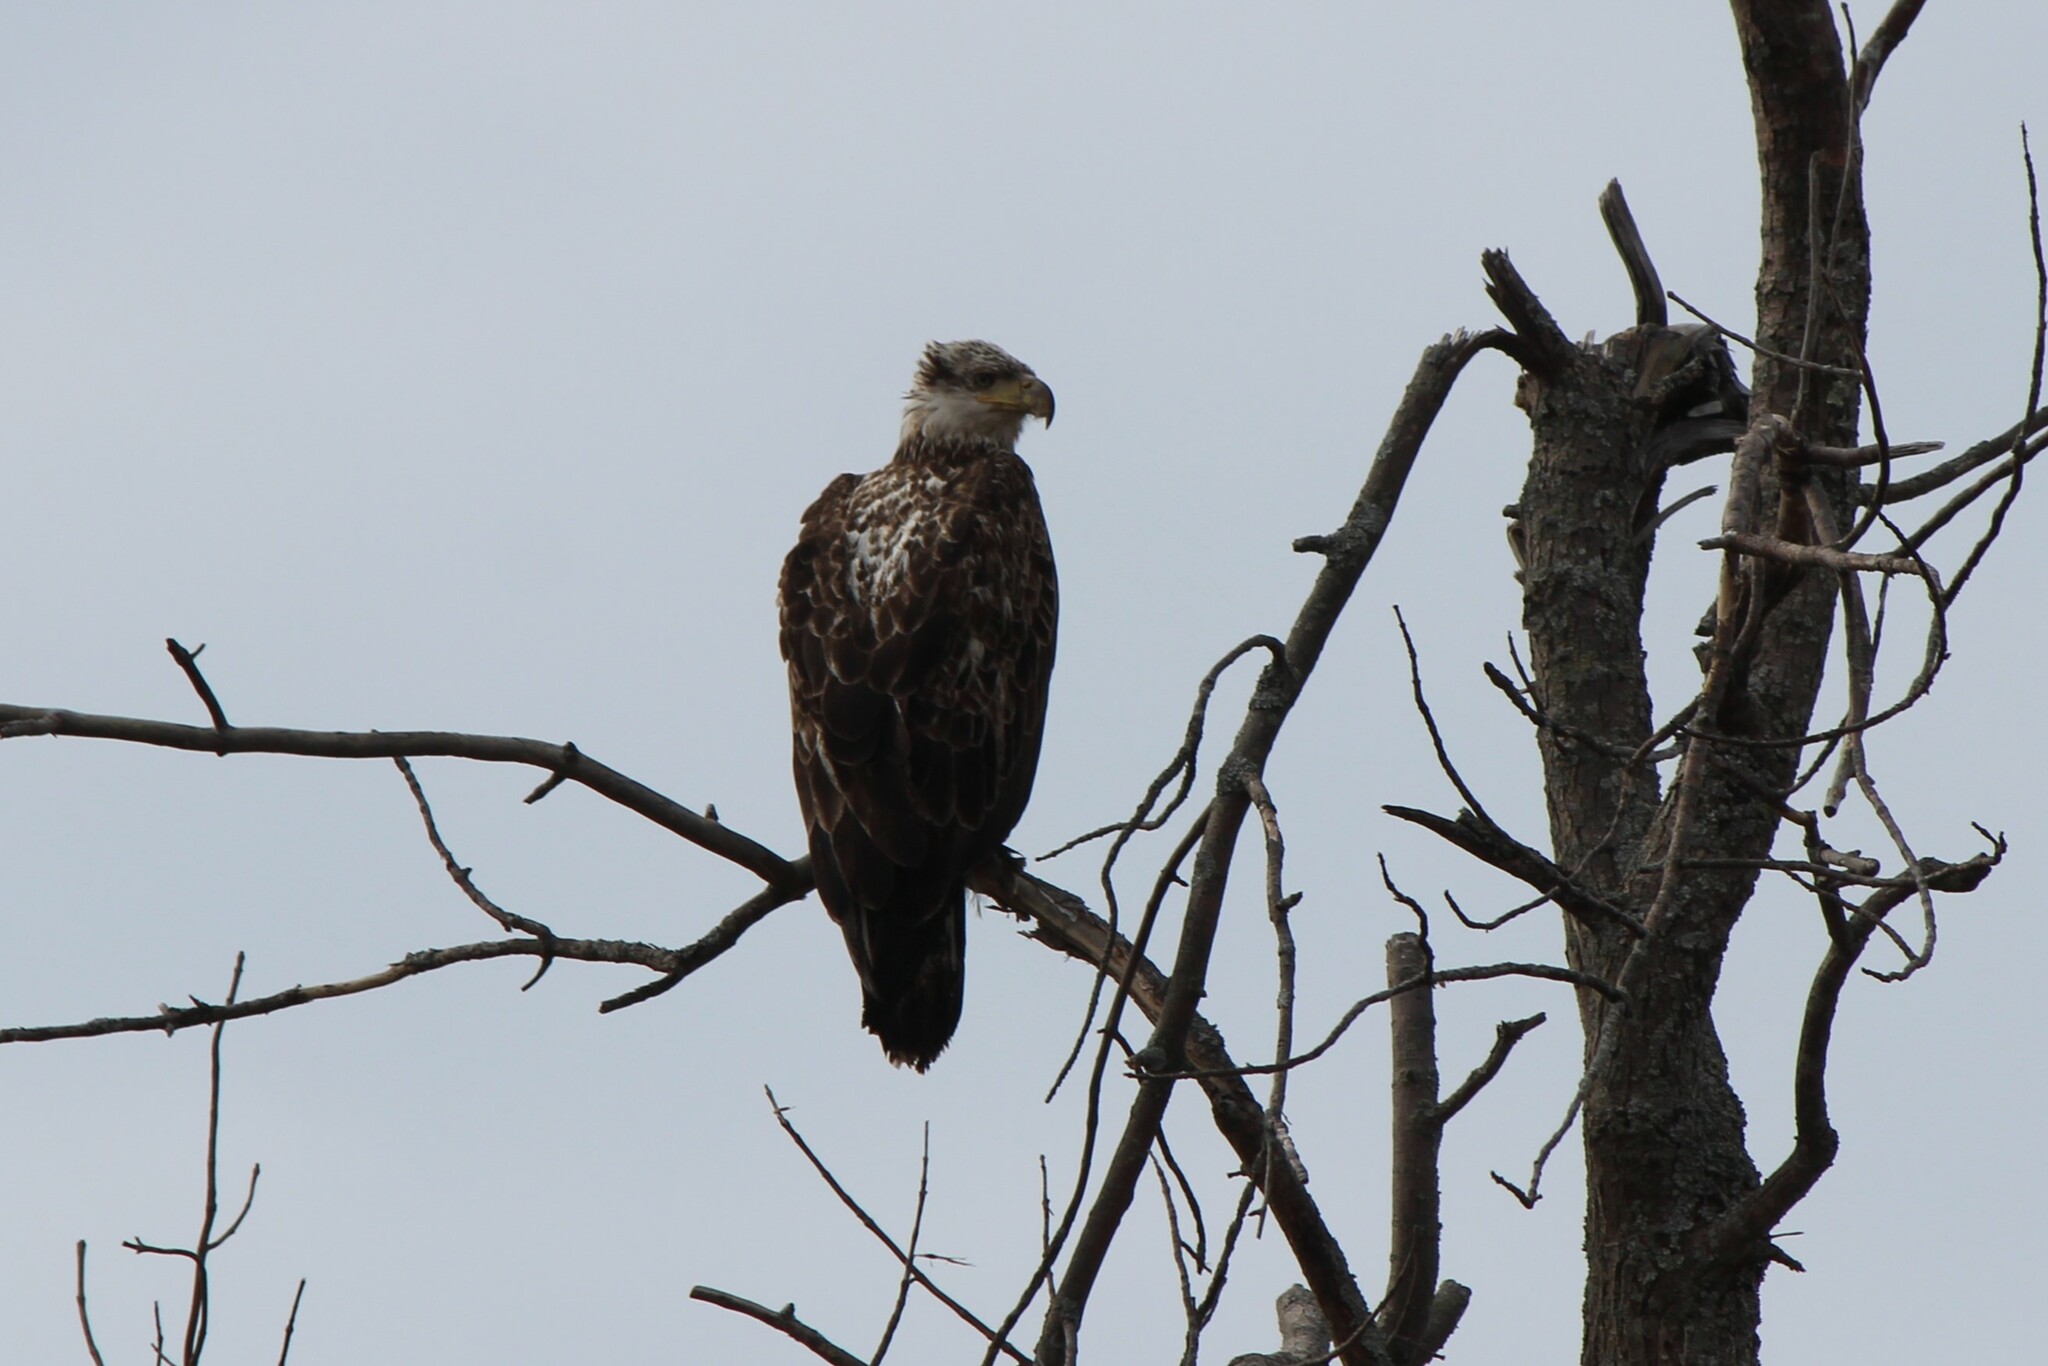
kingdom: Animalia
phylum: Chordata
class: Aves
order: Accipitriformes
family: Accipitridae
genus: Haliaeetus
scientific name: Haliaeetus leucocephalus
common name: Bald eagle
